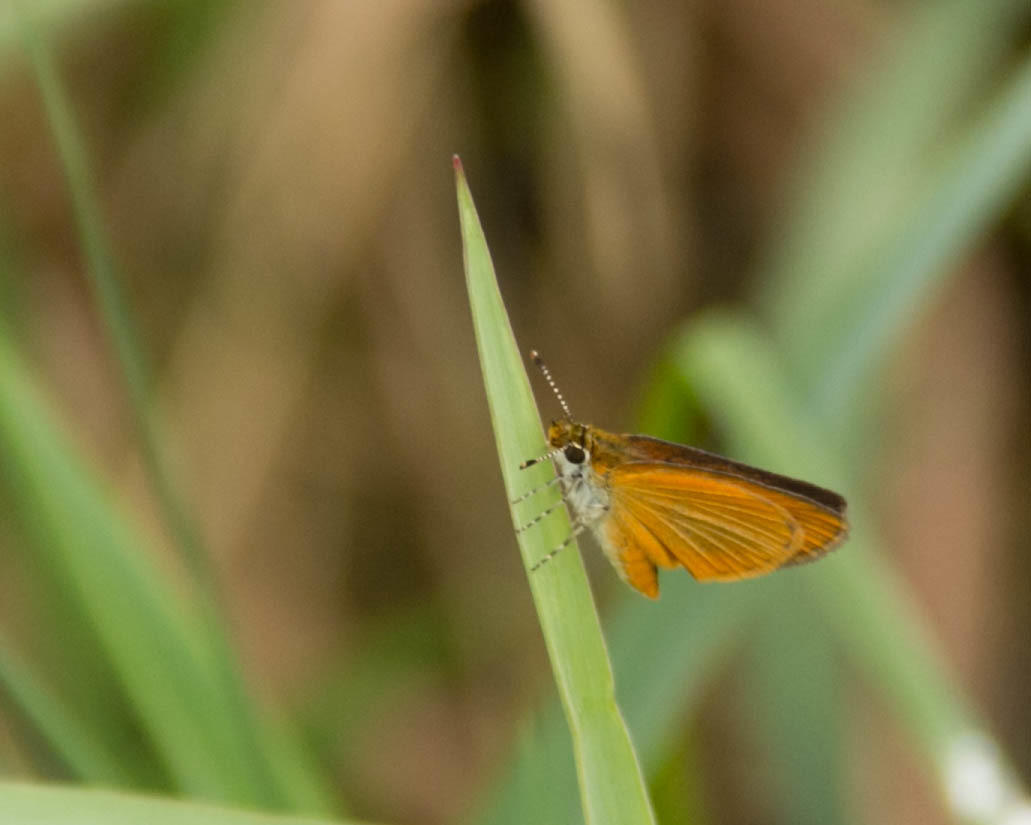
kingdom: Animalia
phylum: Arthropoda
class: Insecta
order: Lepidoptera
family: Hesperiidae
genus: Ancyloxypha
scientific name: Ancyloxypha numitor
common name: Least skipper
